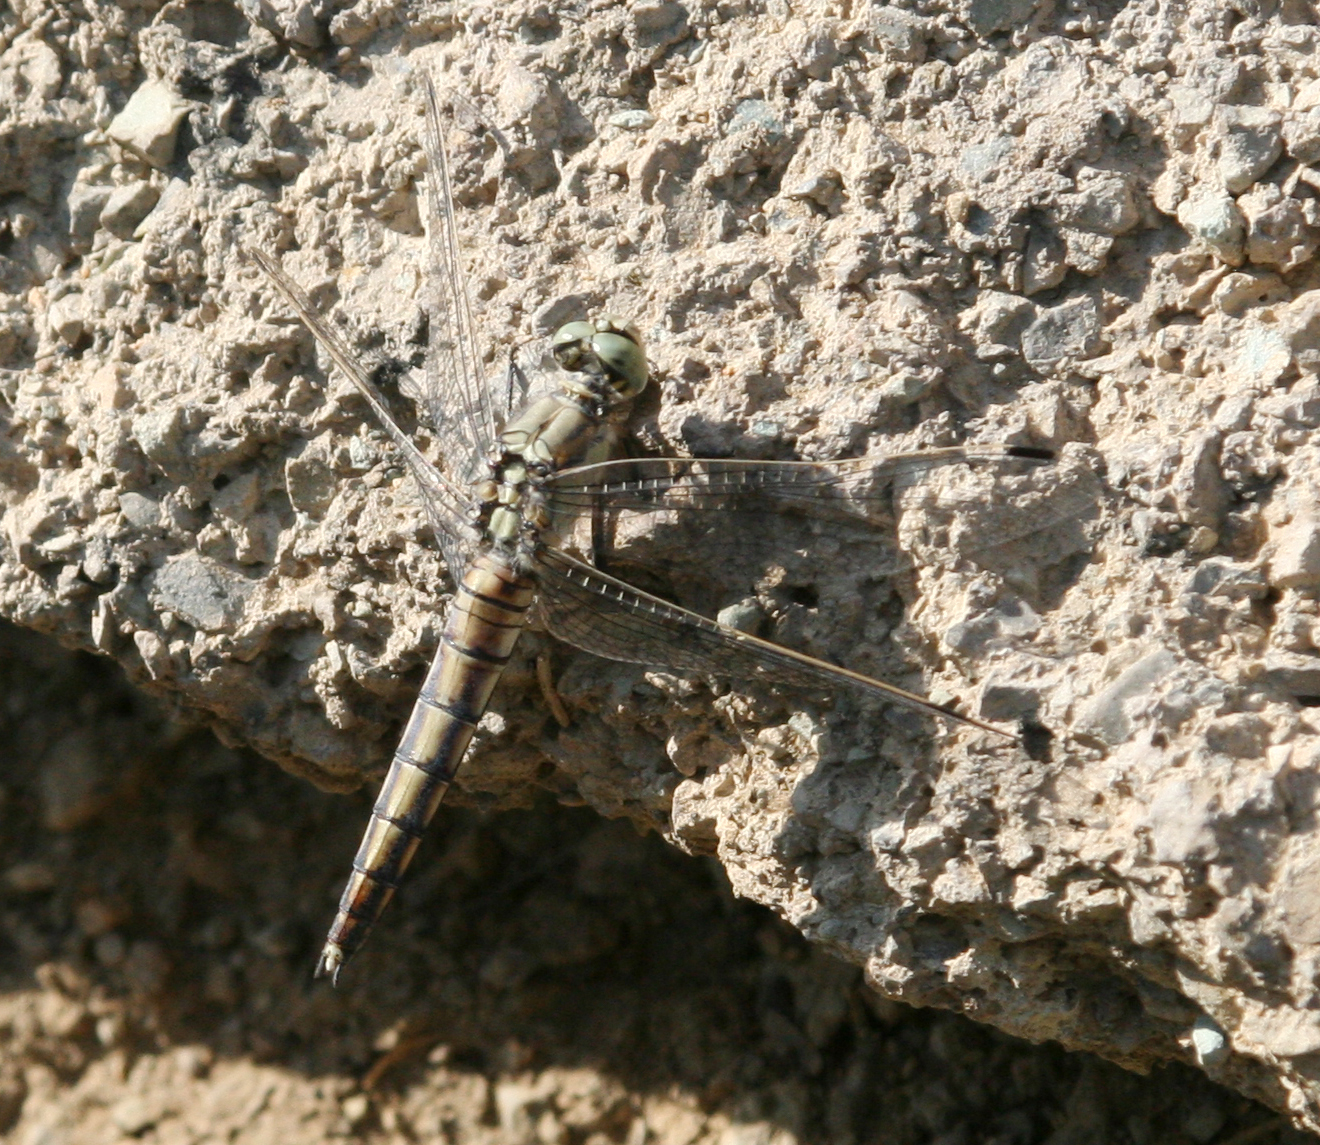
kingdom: Animalia
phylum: Arthropoda
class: Insecta
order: Odonata
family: Libellulidae
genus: Orthetrum
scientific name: Orthetrum cancellatum
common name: Black-tailed skimmer
